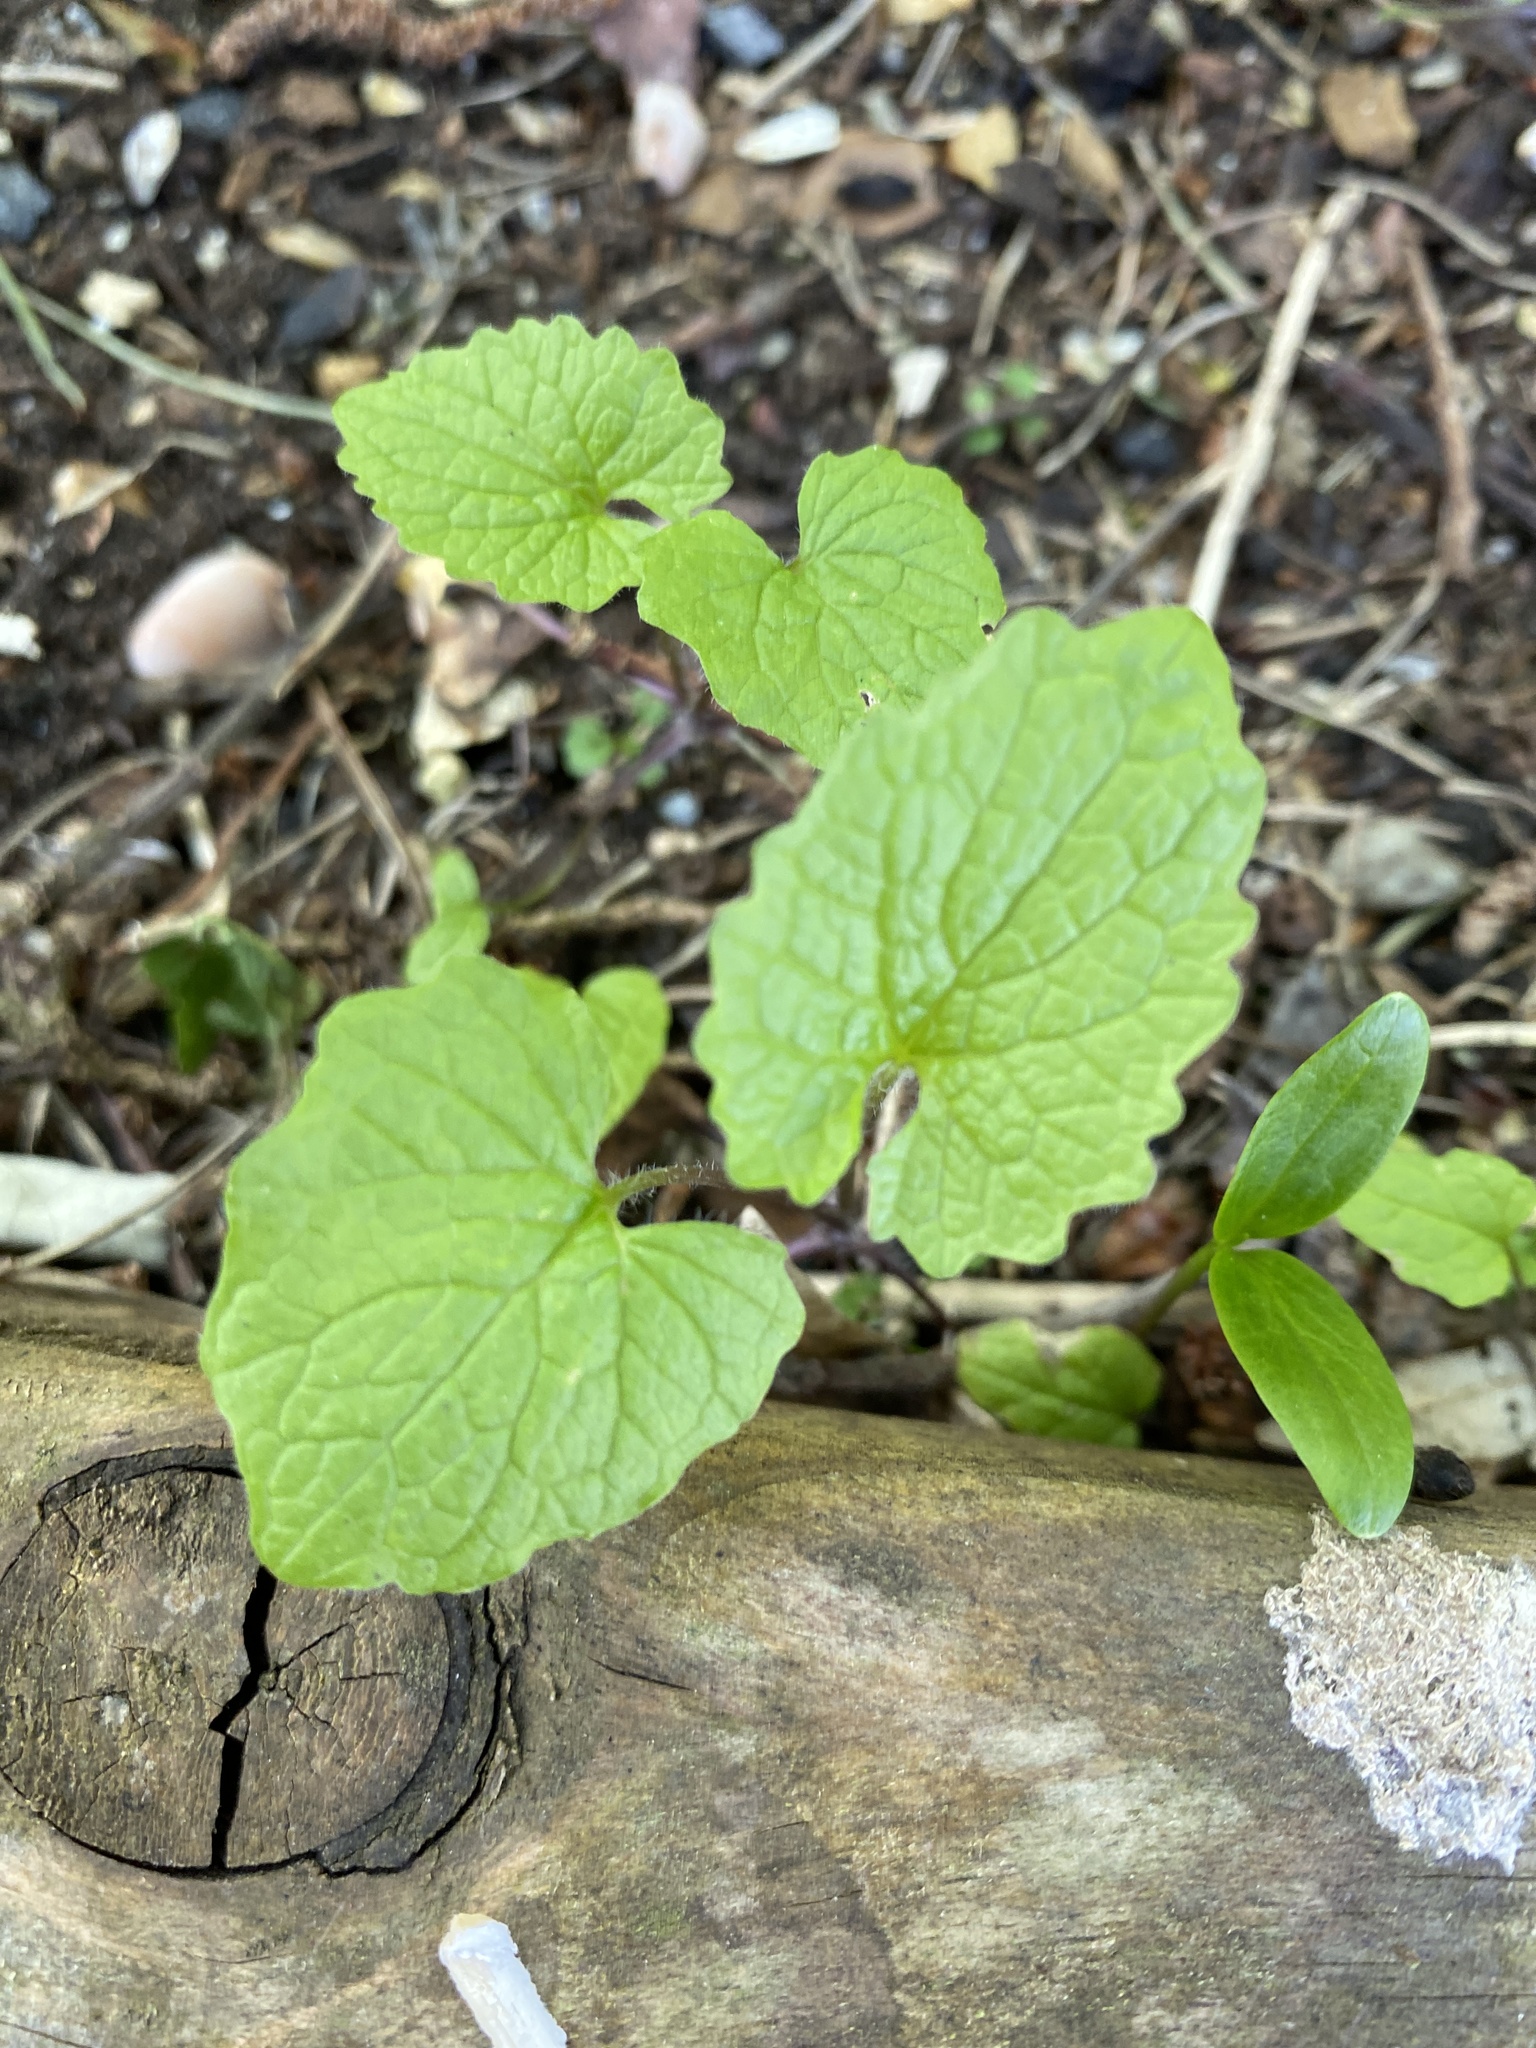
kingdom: Plantae
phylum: Tracheophyta
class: Magnoliopsida
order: Brassicales
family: Brassicaceae
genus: Alliaria
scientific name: Alliaria petiolata
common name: Garlic mustard
